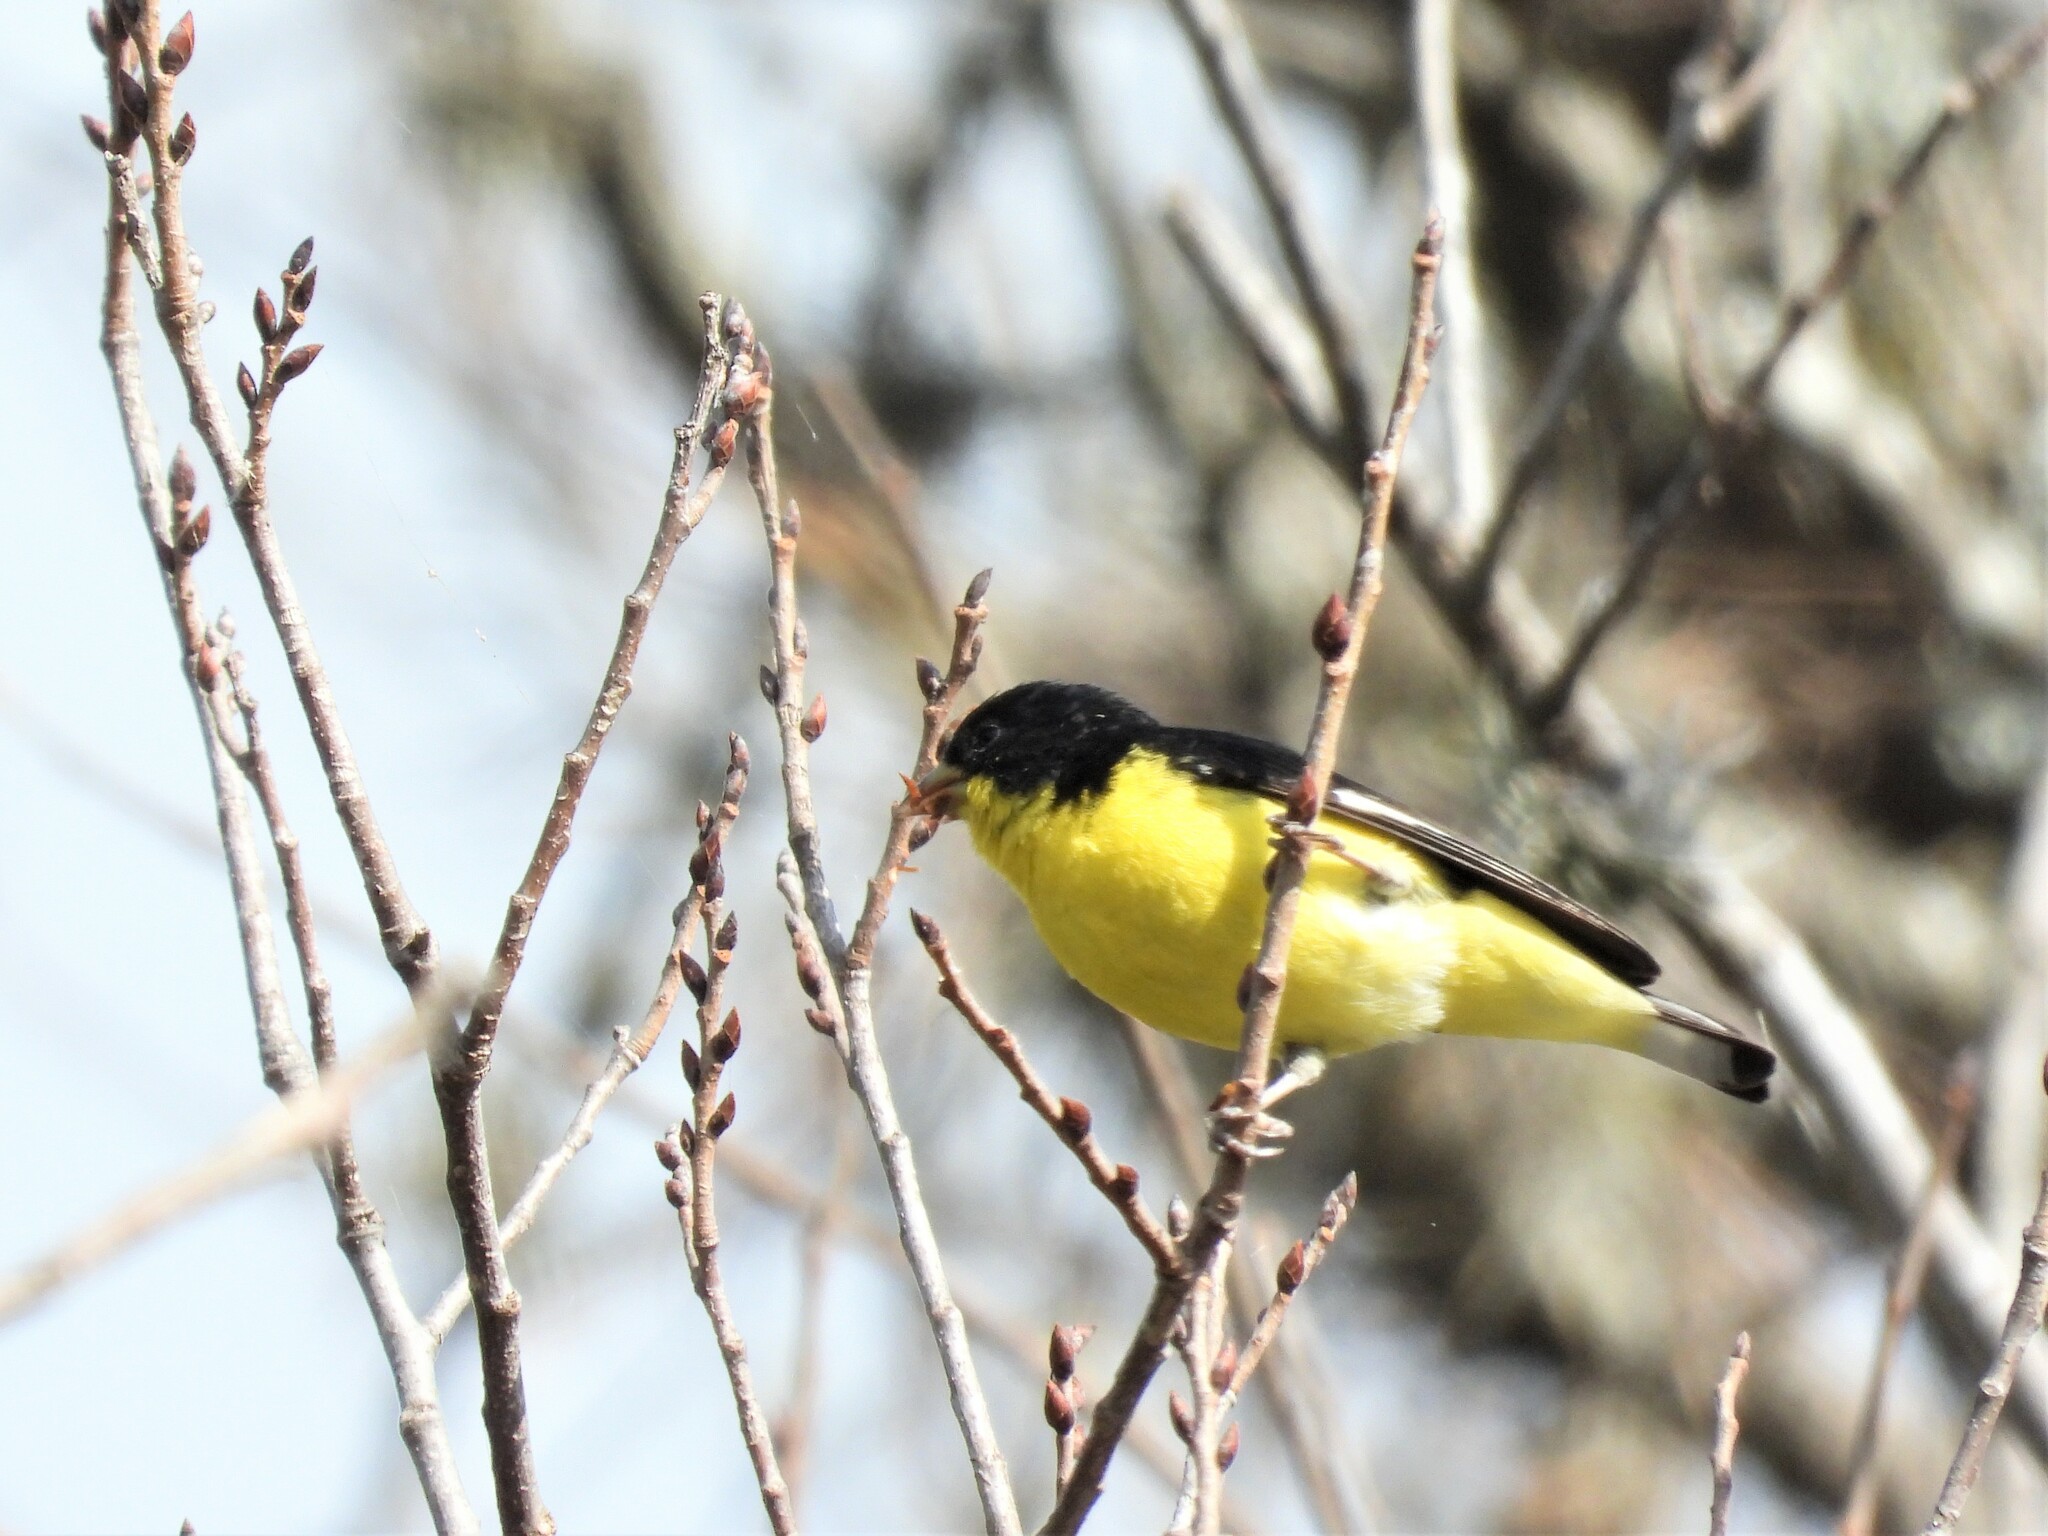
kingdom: Animalia
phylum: Chordata
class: Aves
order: Passeriformes
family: Fringillidae
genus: Spinus
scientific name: Spinus psaltria
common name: Lesser goldfinch
